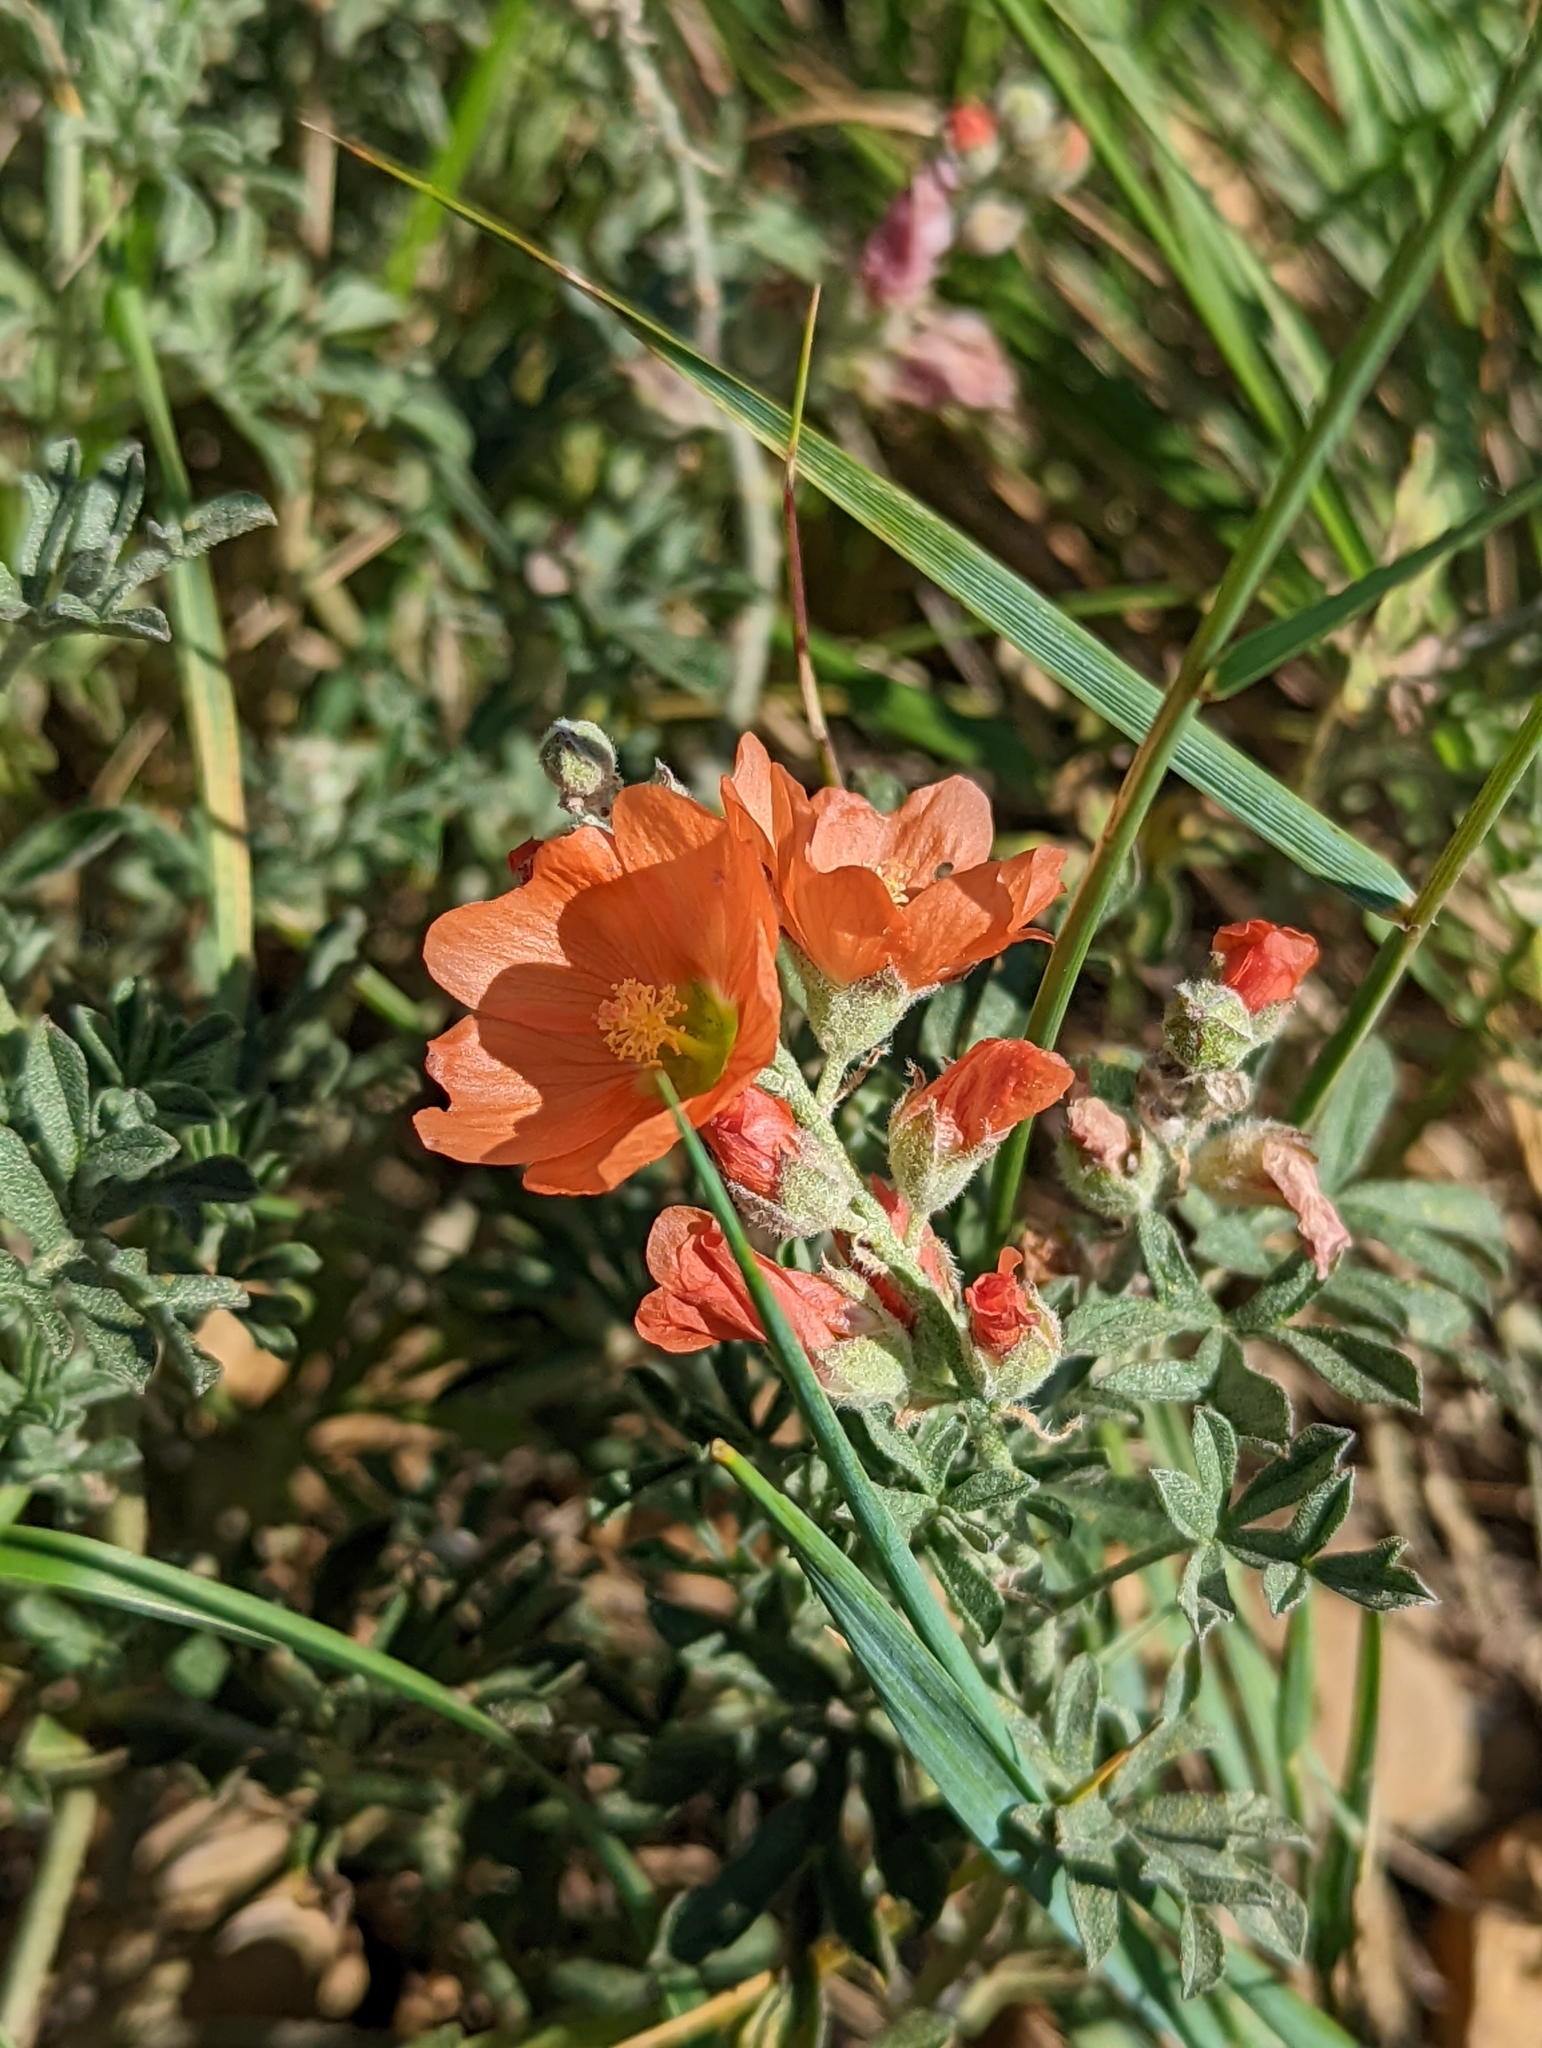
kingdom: Plantae
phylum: Tracheophyta
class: Magnoliopsida
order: Malvales
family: Malvaceae
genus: Sphaeralcea
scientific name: Sphaeralcea coccinea
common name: Moss-rose
